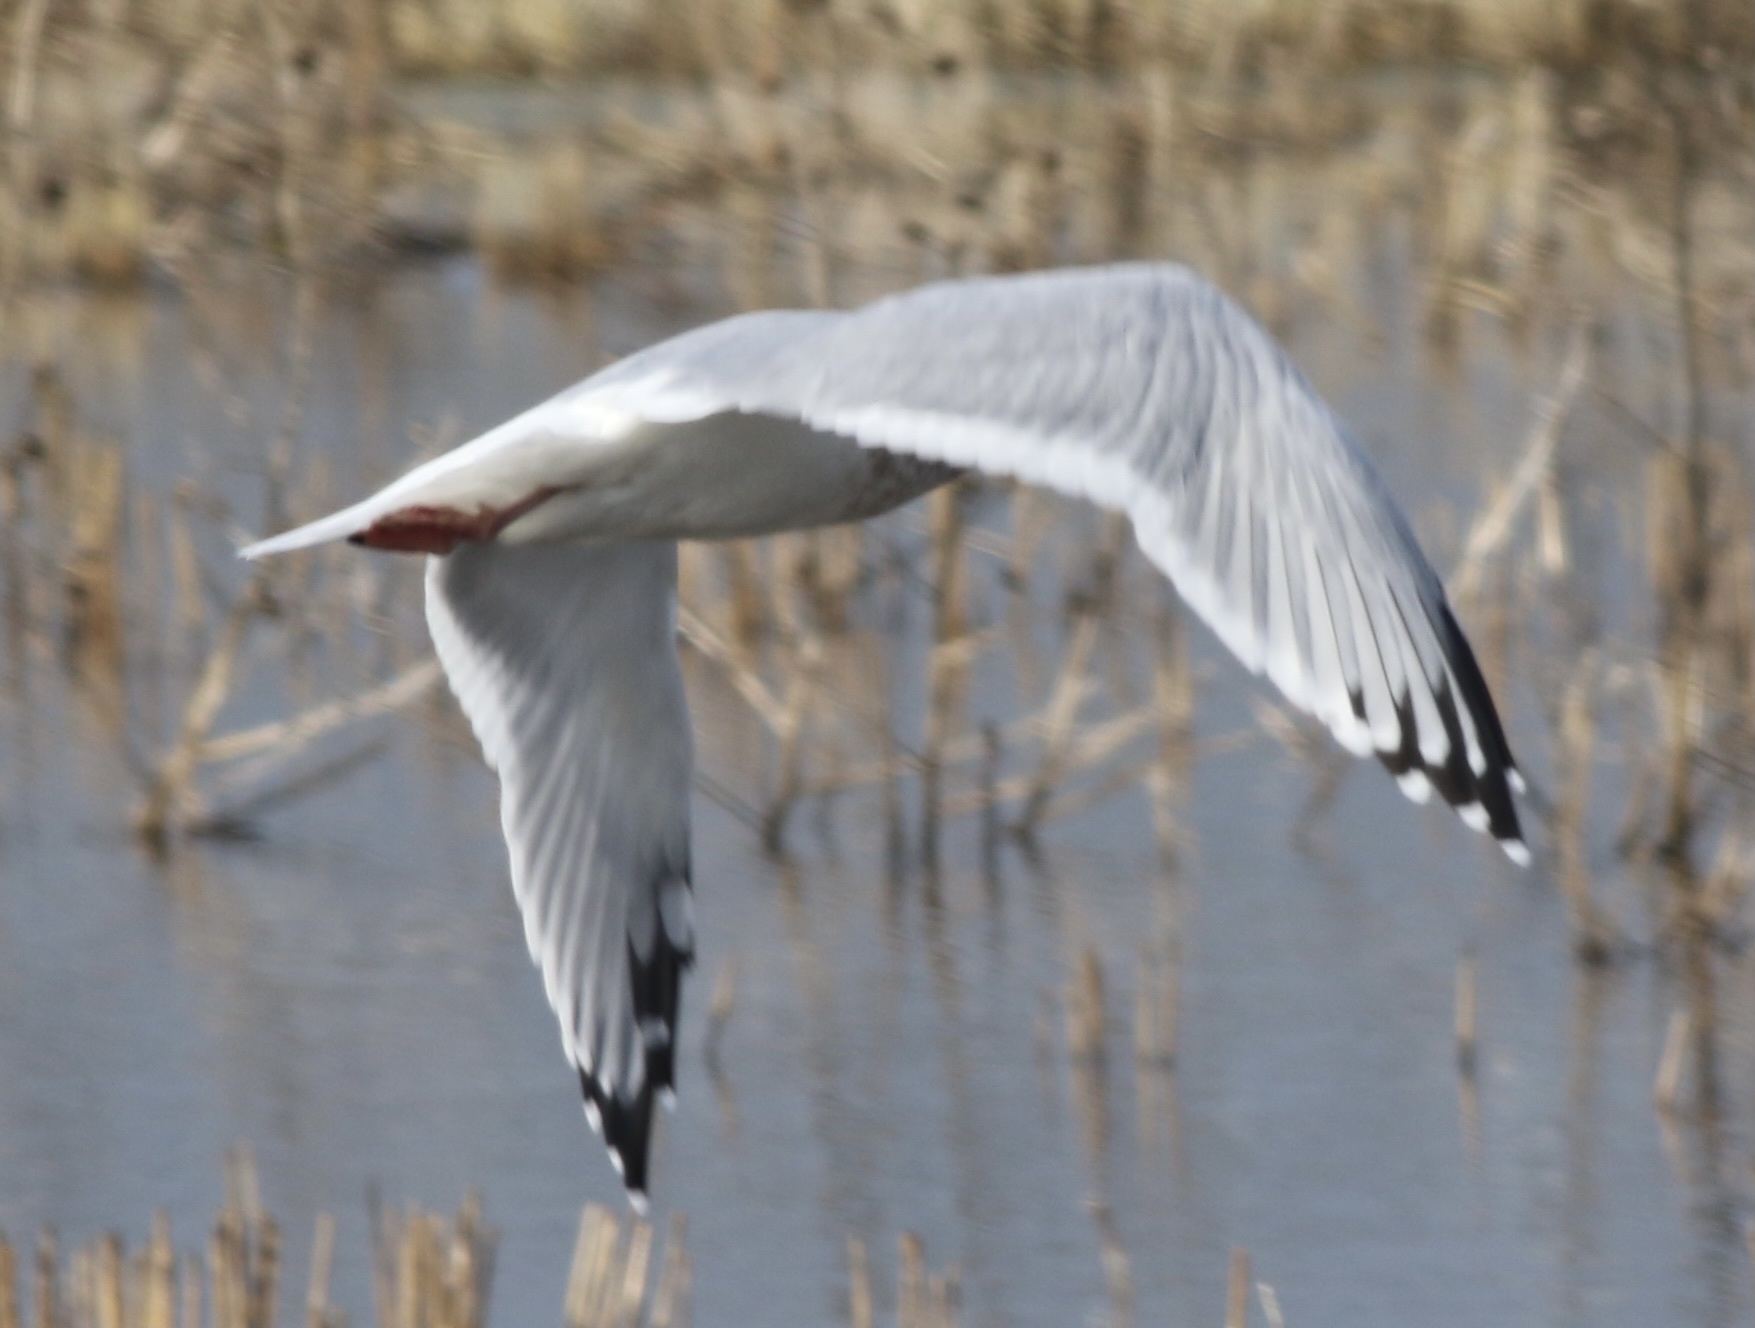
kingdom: Animalia
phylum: Chordata
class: Aves
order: Charadriiformes
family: Laridae
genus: Larus
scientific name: Larus argentatus
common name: Herring gull
